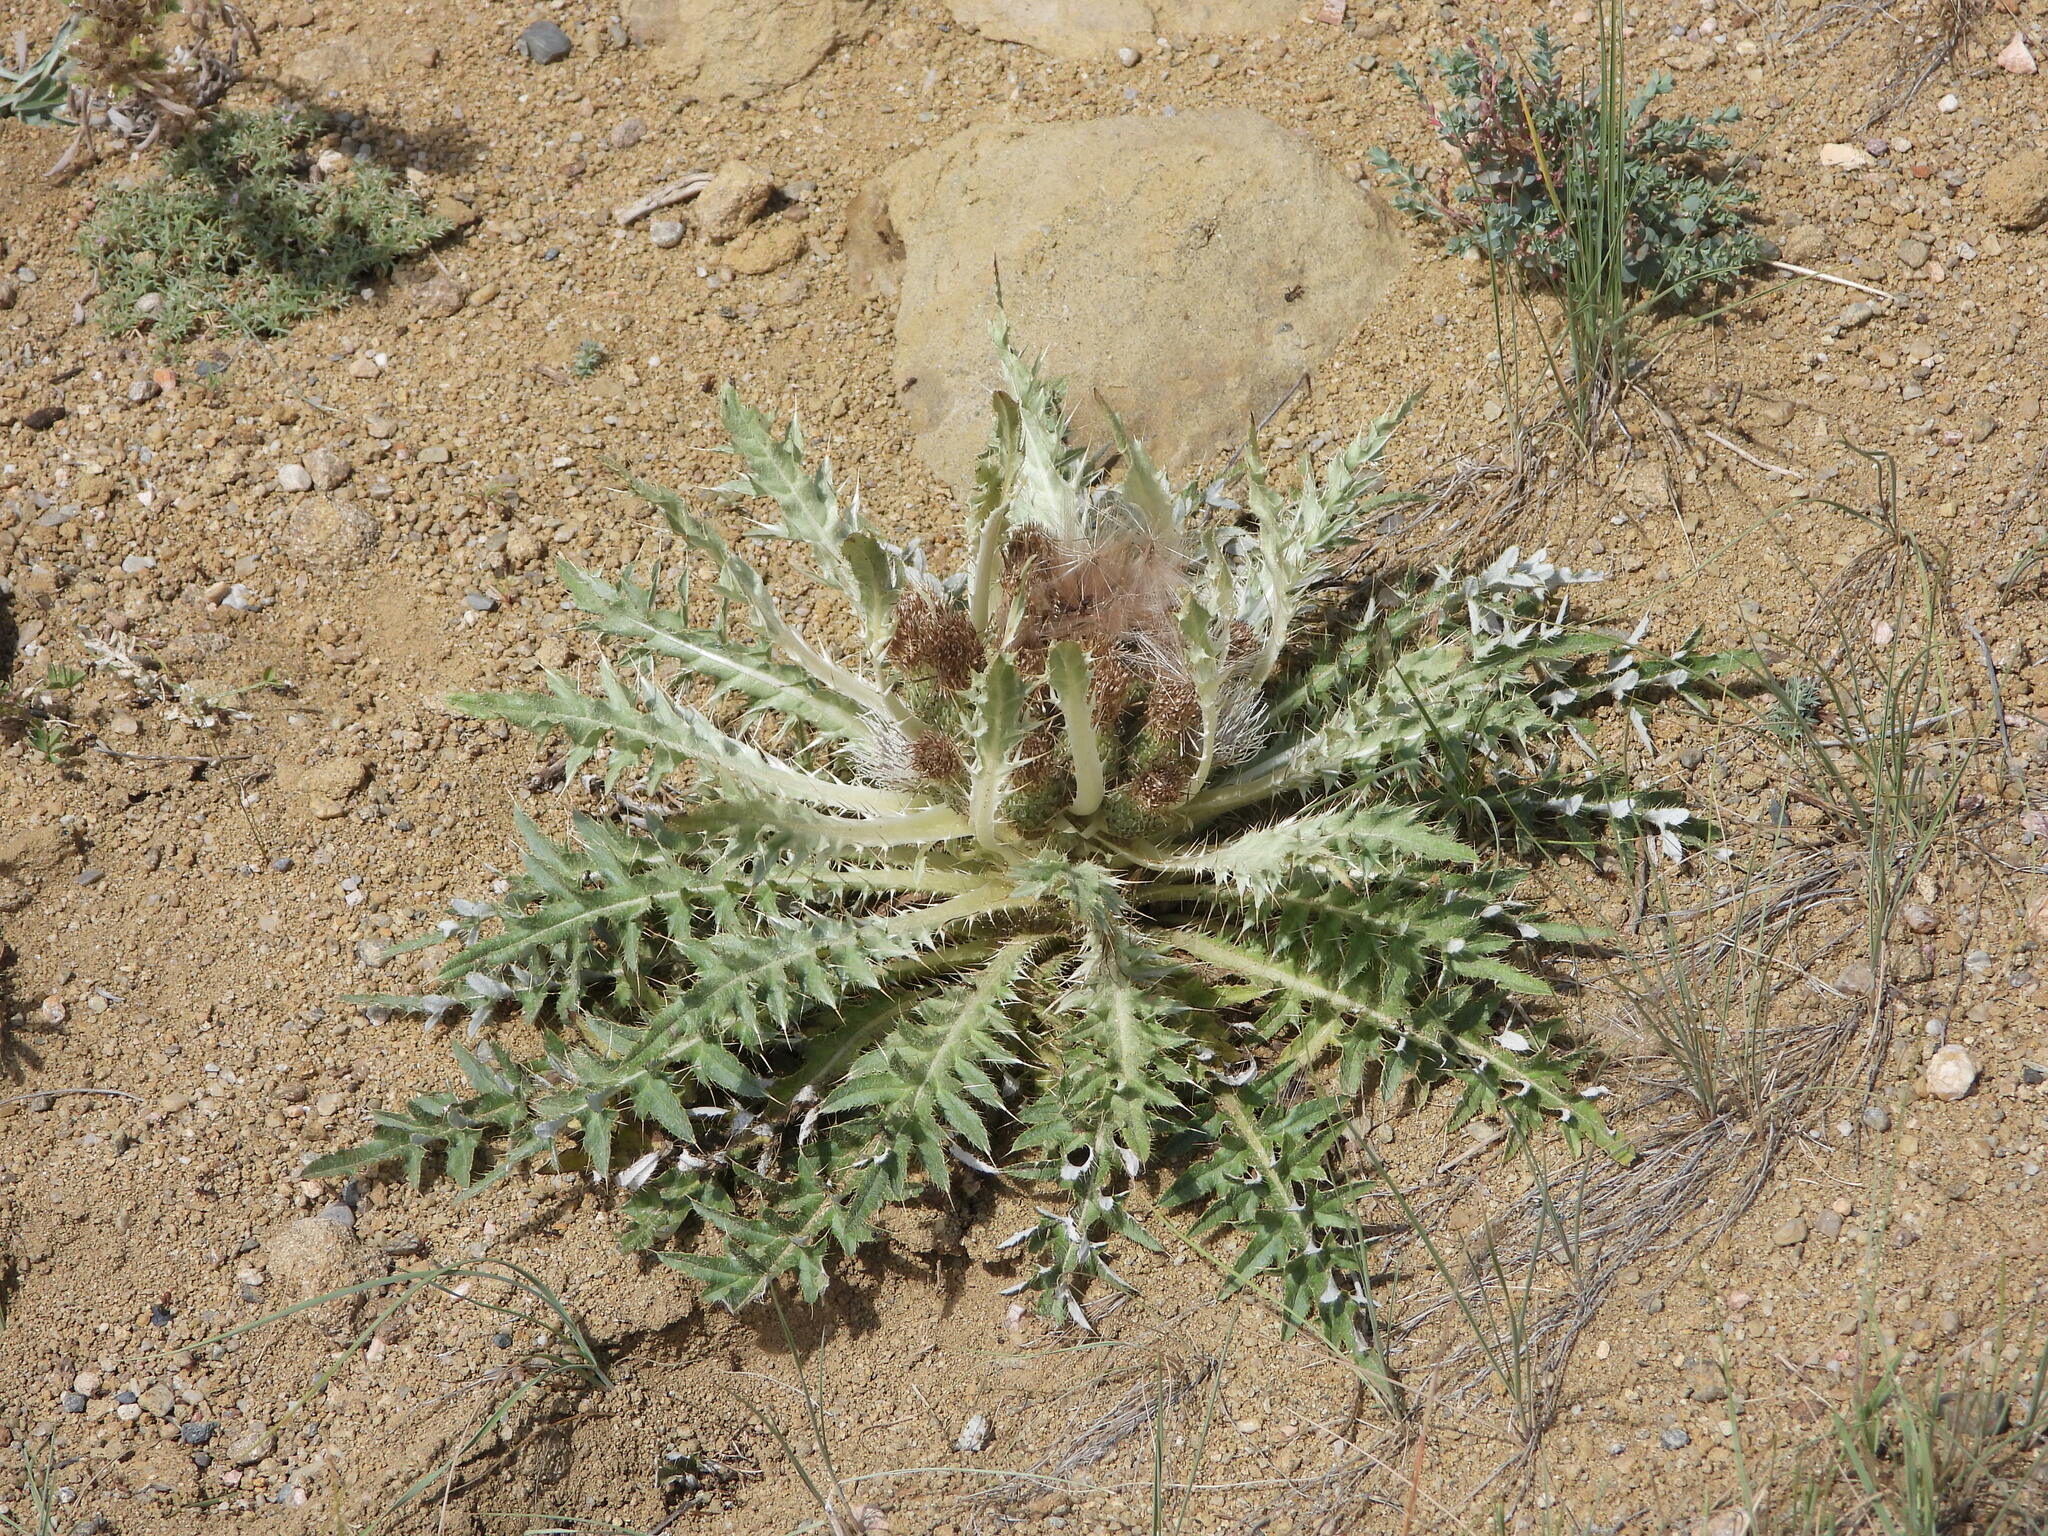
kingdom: Plantae
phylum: Tracheophyta
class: Magnoliopsida
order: Asterales
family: Asteraceae
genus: Cirsium
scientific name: Cirsium tioganum
